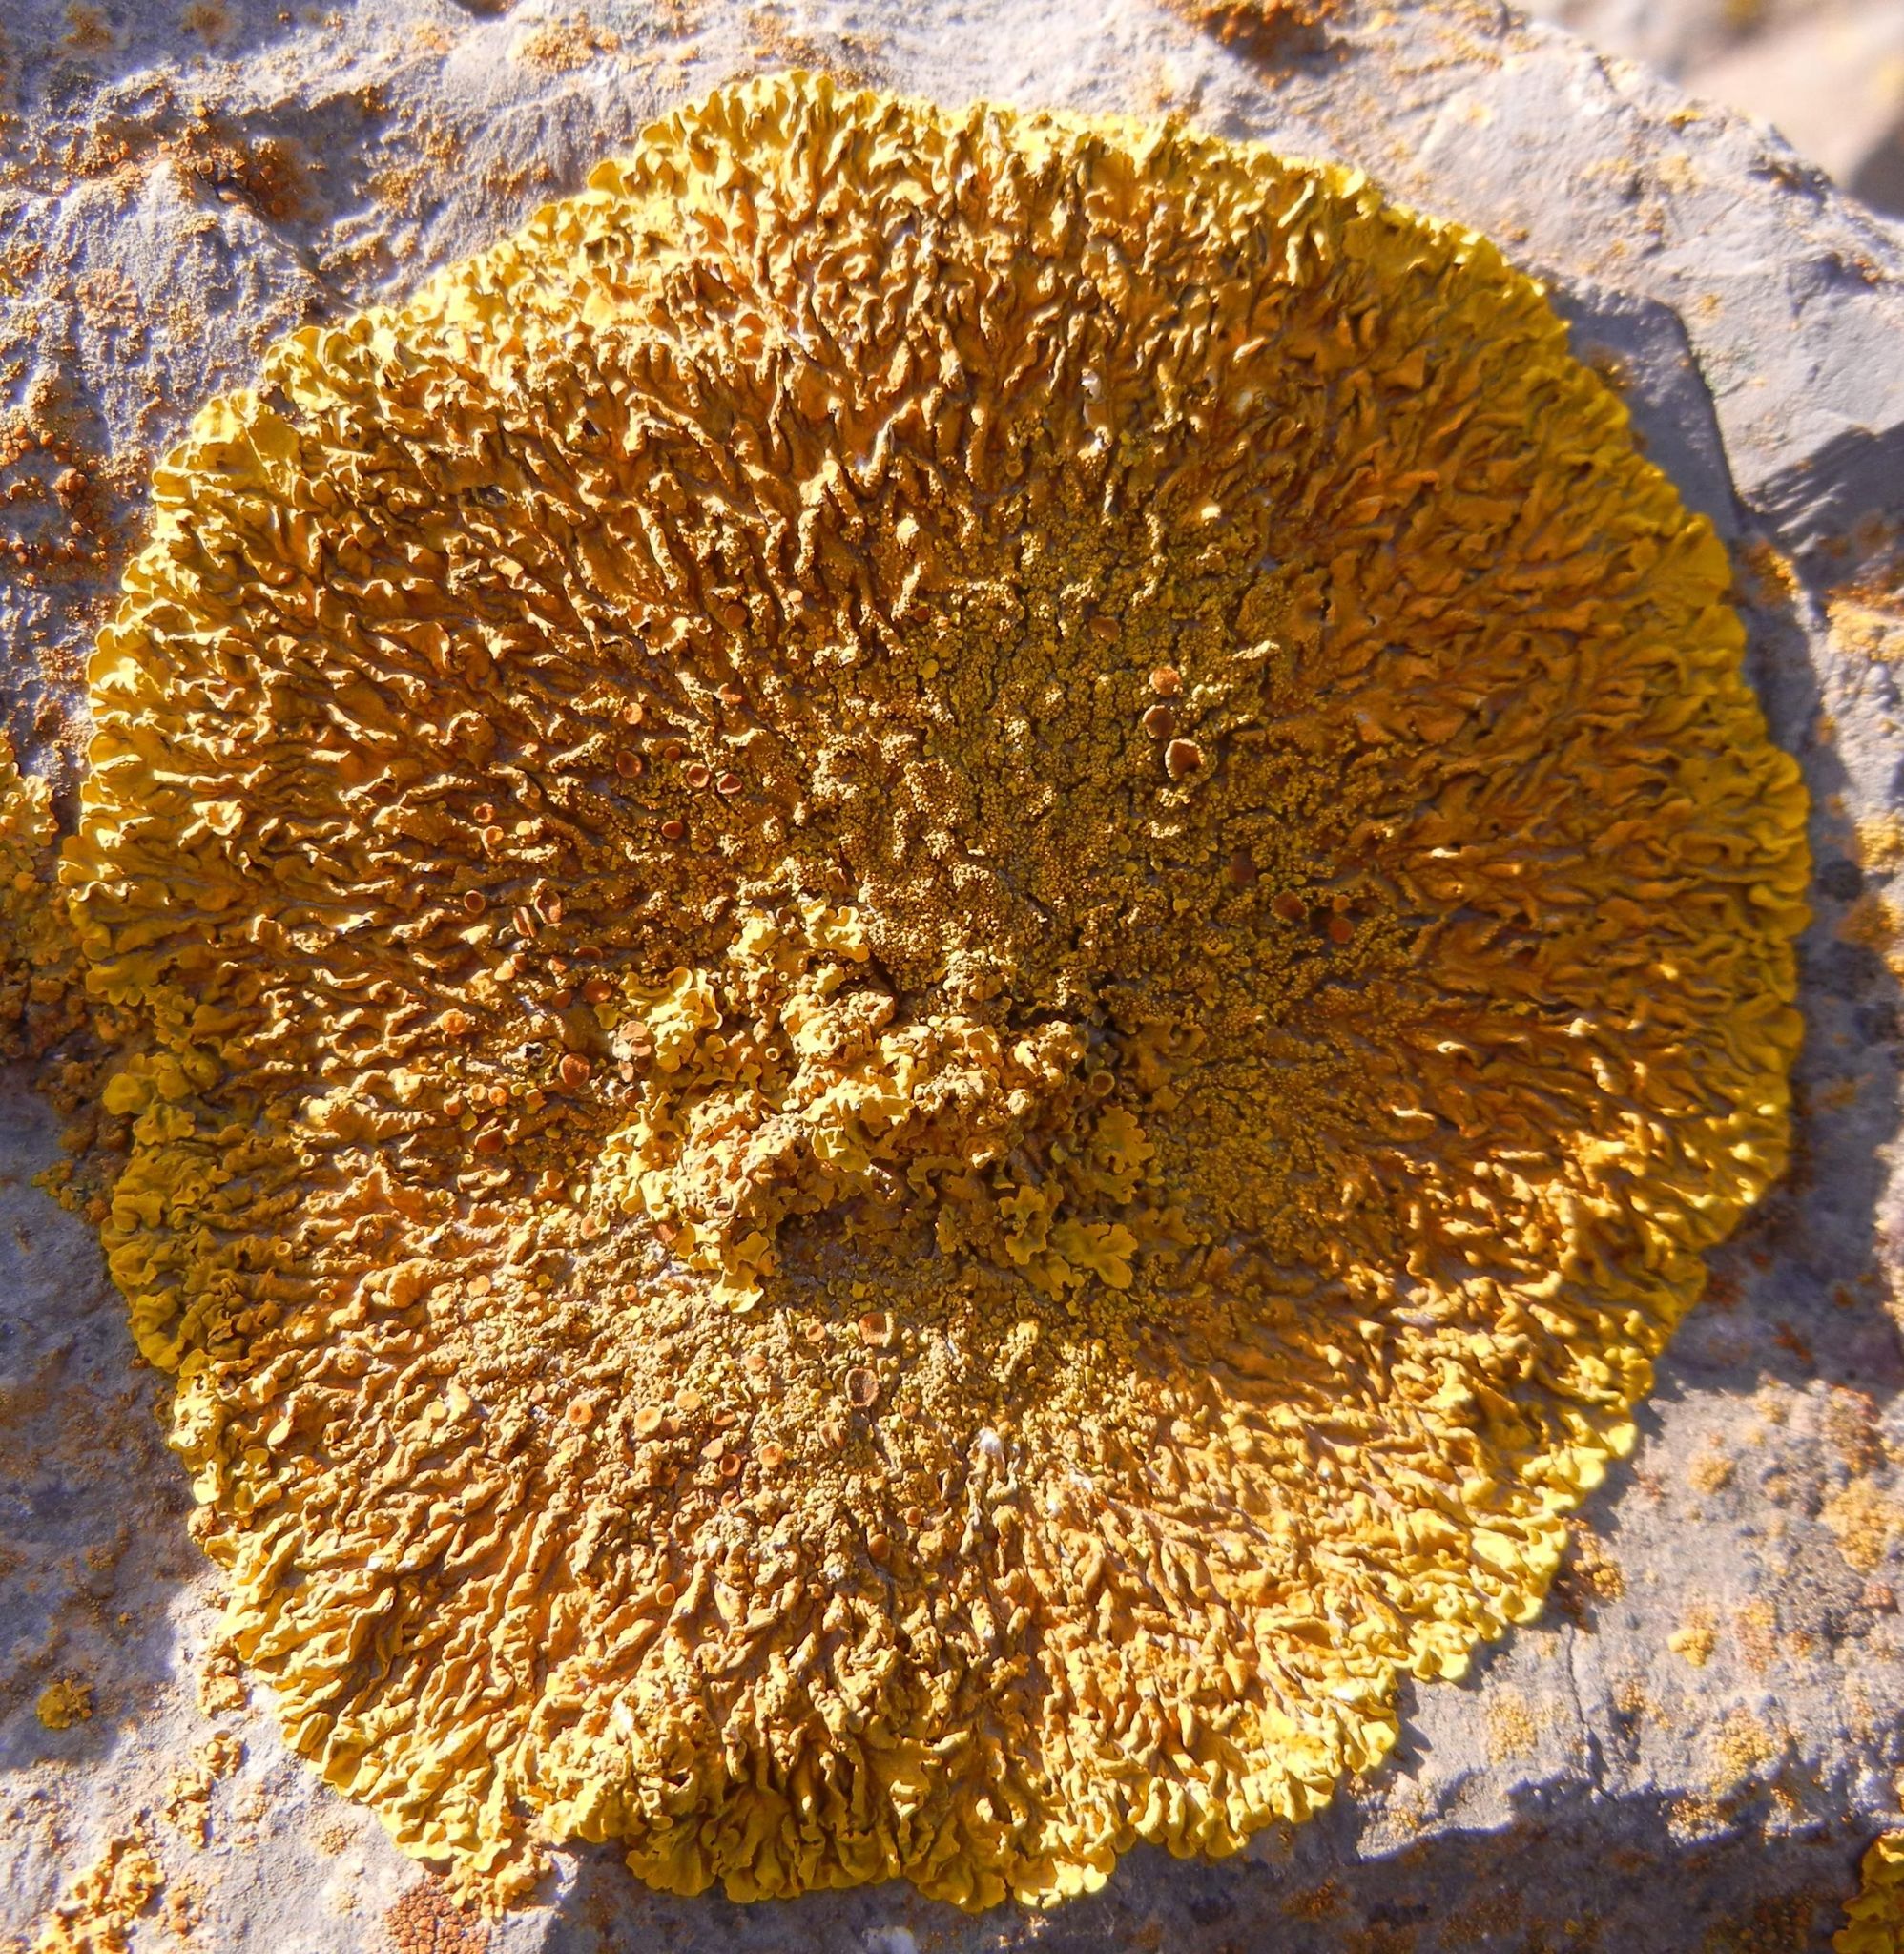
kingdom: Fungi
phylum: Ascomycota
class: Lecanoromycetes
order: Teloschistales
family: Teloschistaceae
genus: Xanthoria
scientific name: Xanthoria calcicola
